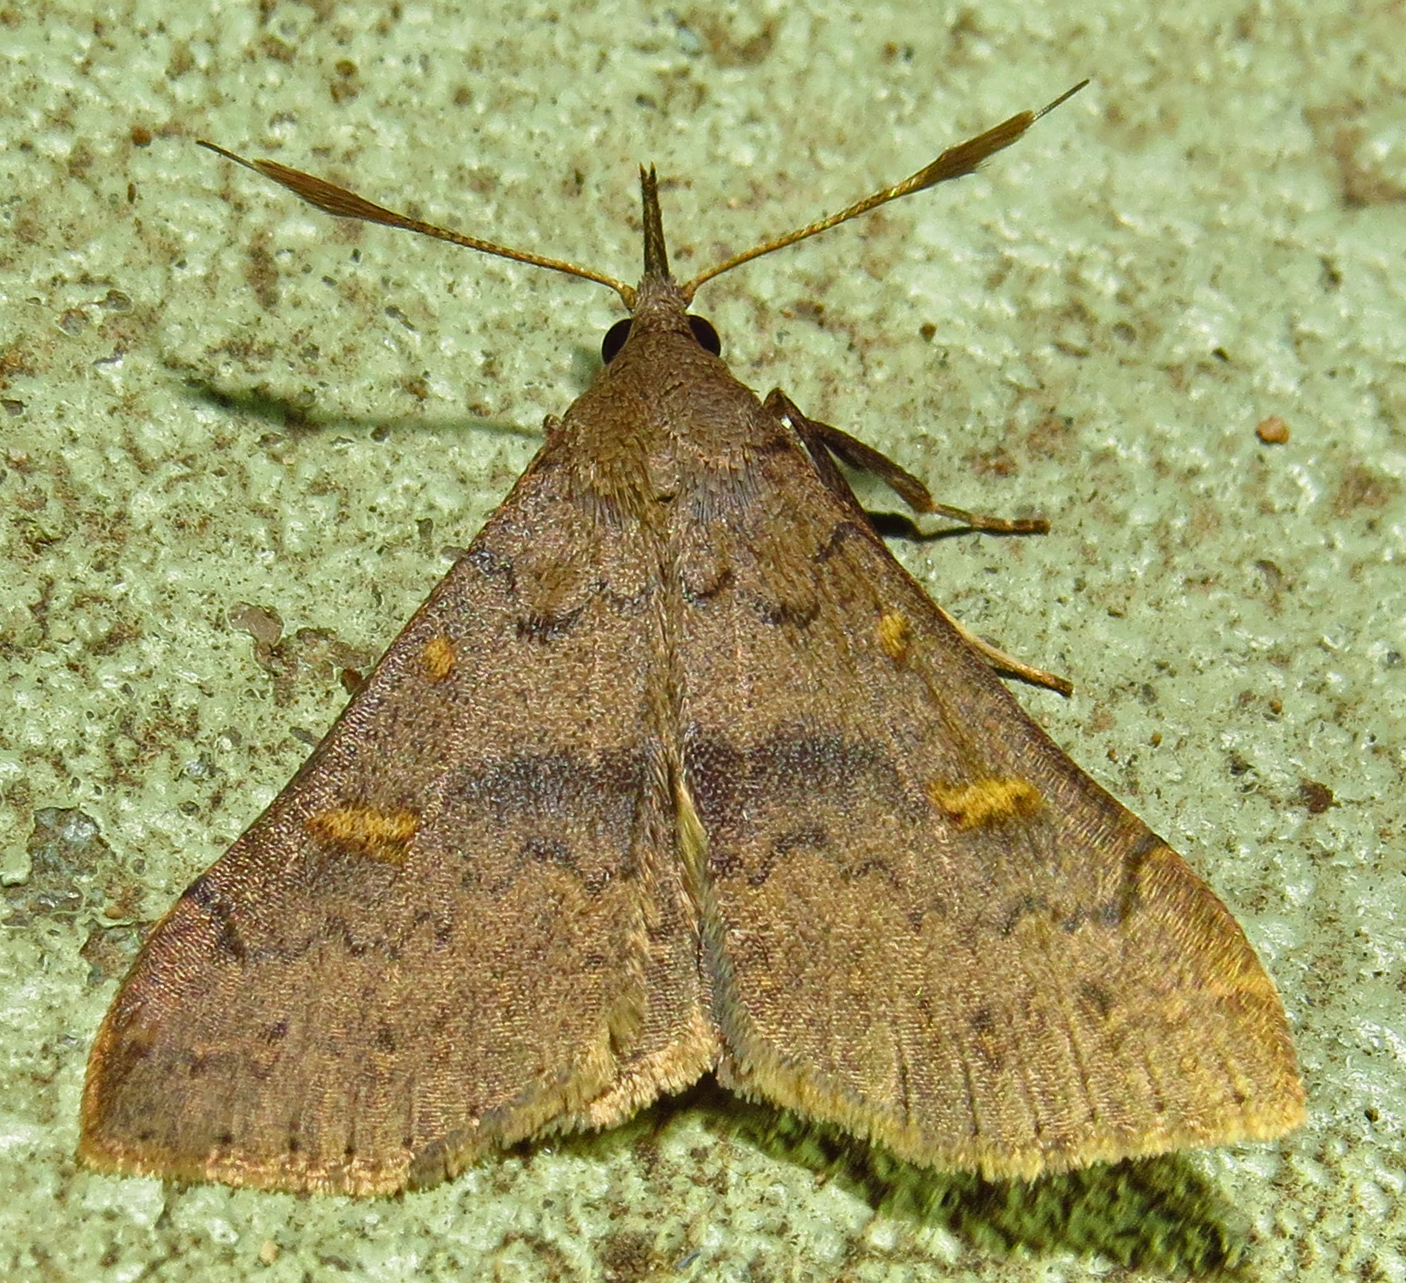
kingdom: Animalia
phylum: Arthropoda
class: Insecta
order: Lepidoptera
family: Erebidae
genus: Renia
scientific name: Renia adspergillus
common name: Speckled renia moth
